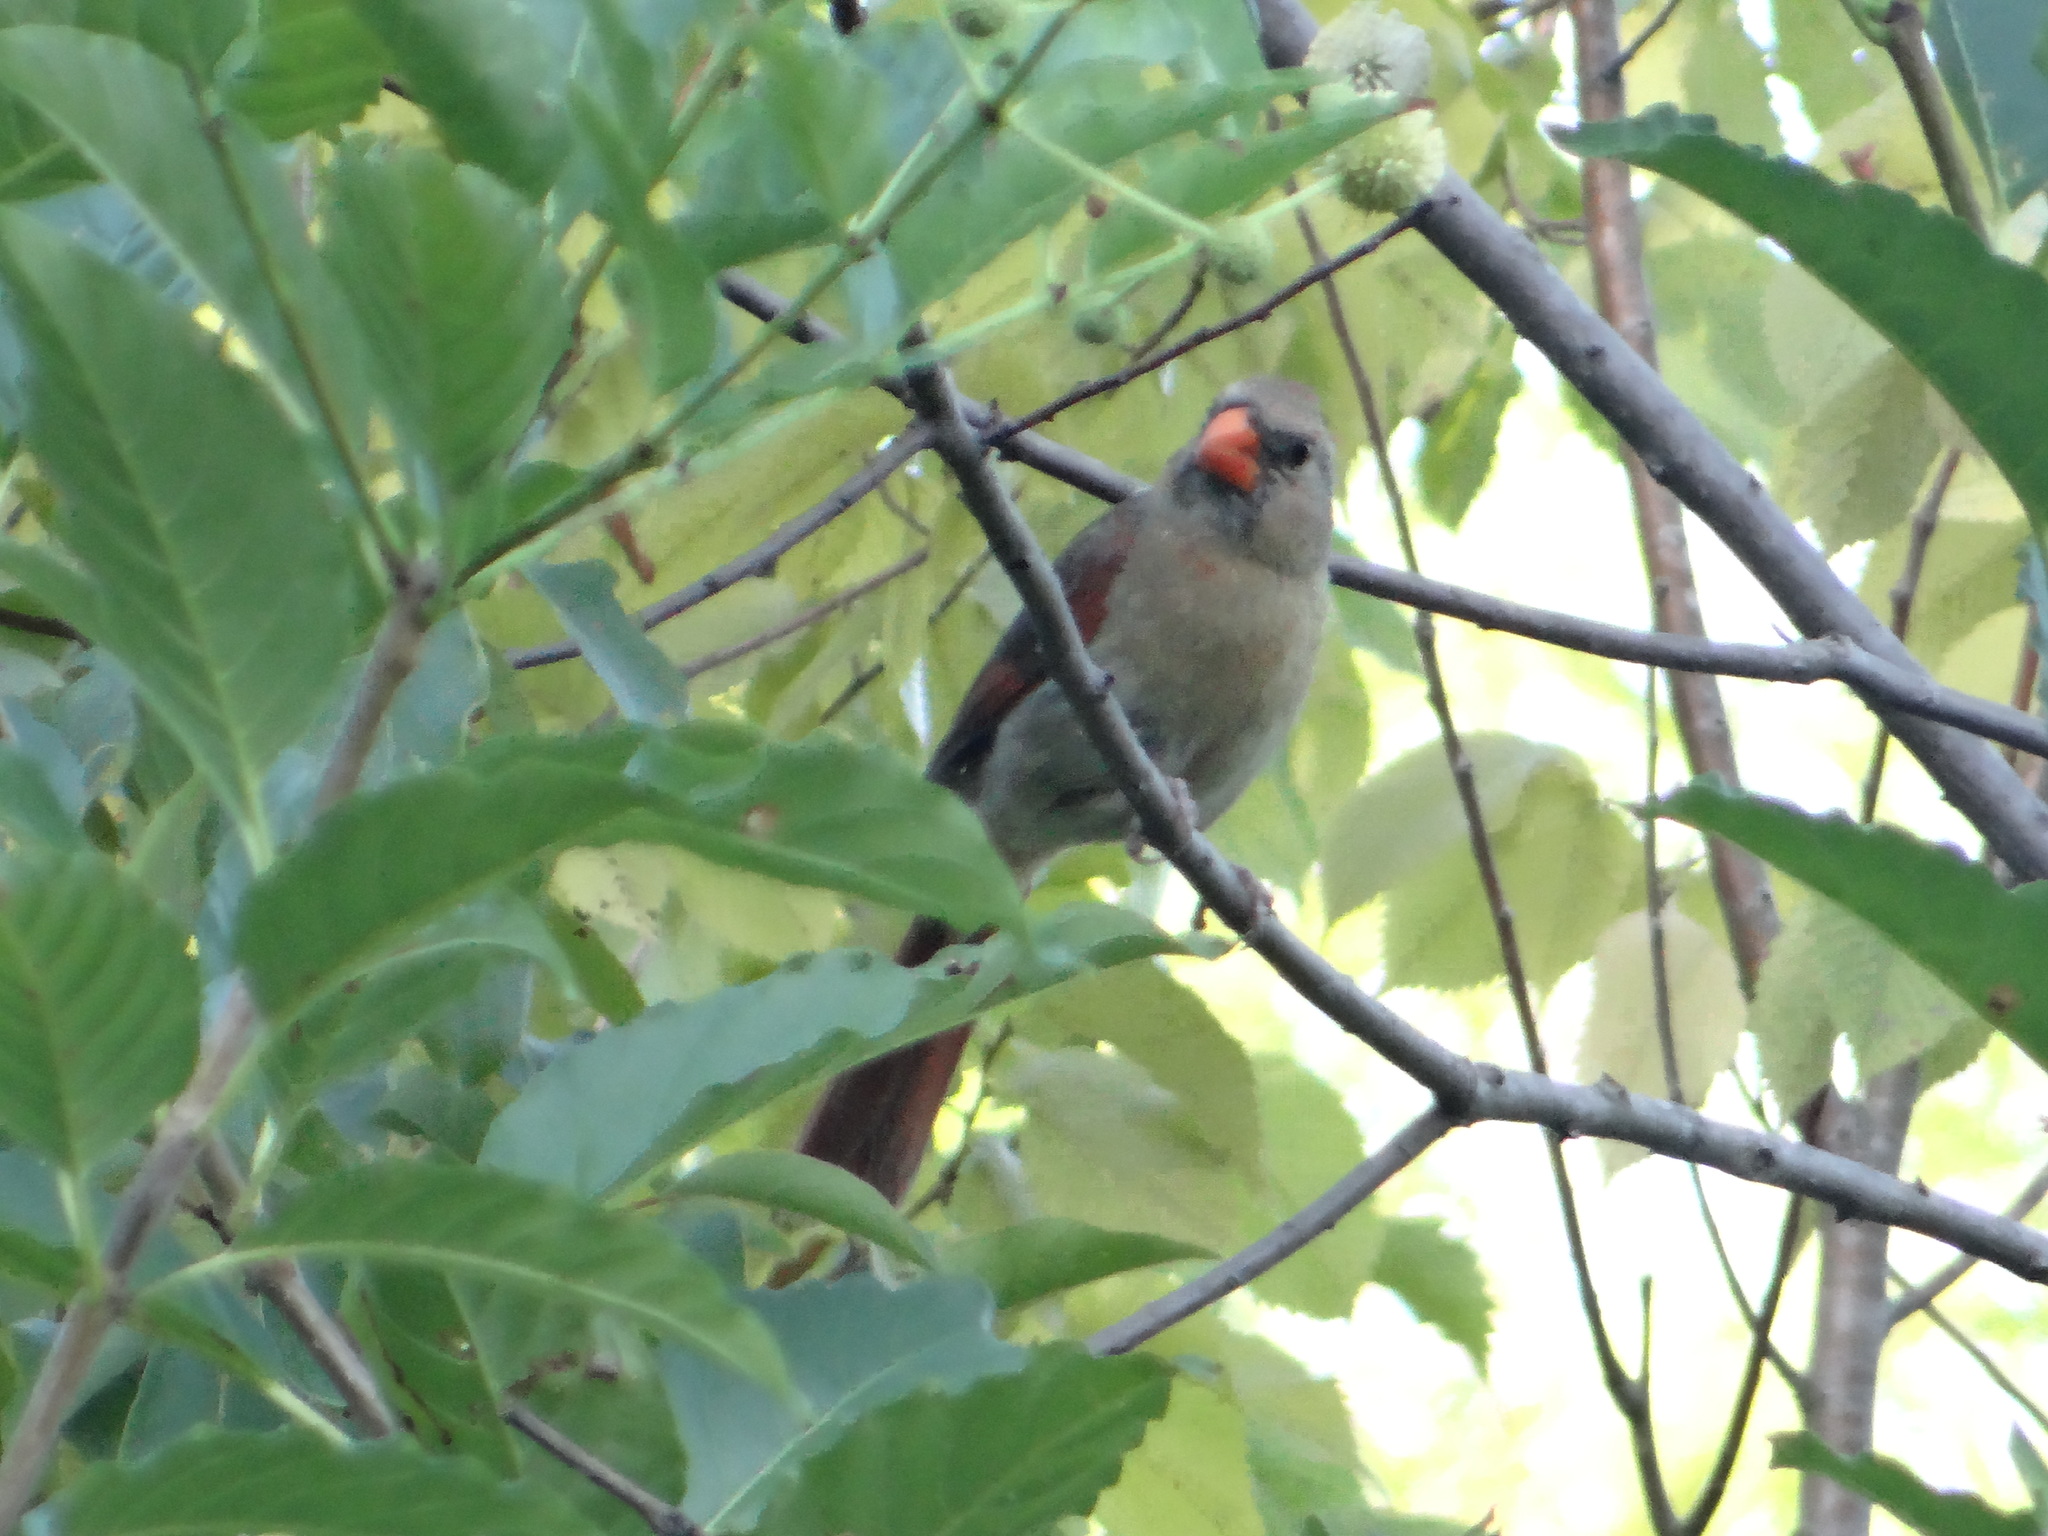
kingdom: Animalia
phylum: Chordata
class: Aves
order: Passeriformes
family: Cardinalidae
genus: Cardinalis
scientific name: Cardinalis cardinalis
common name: Northern cardinal
